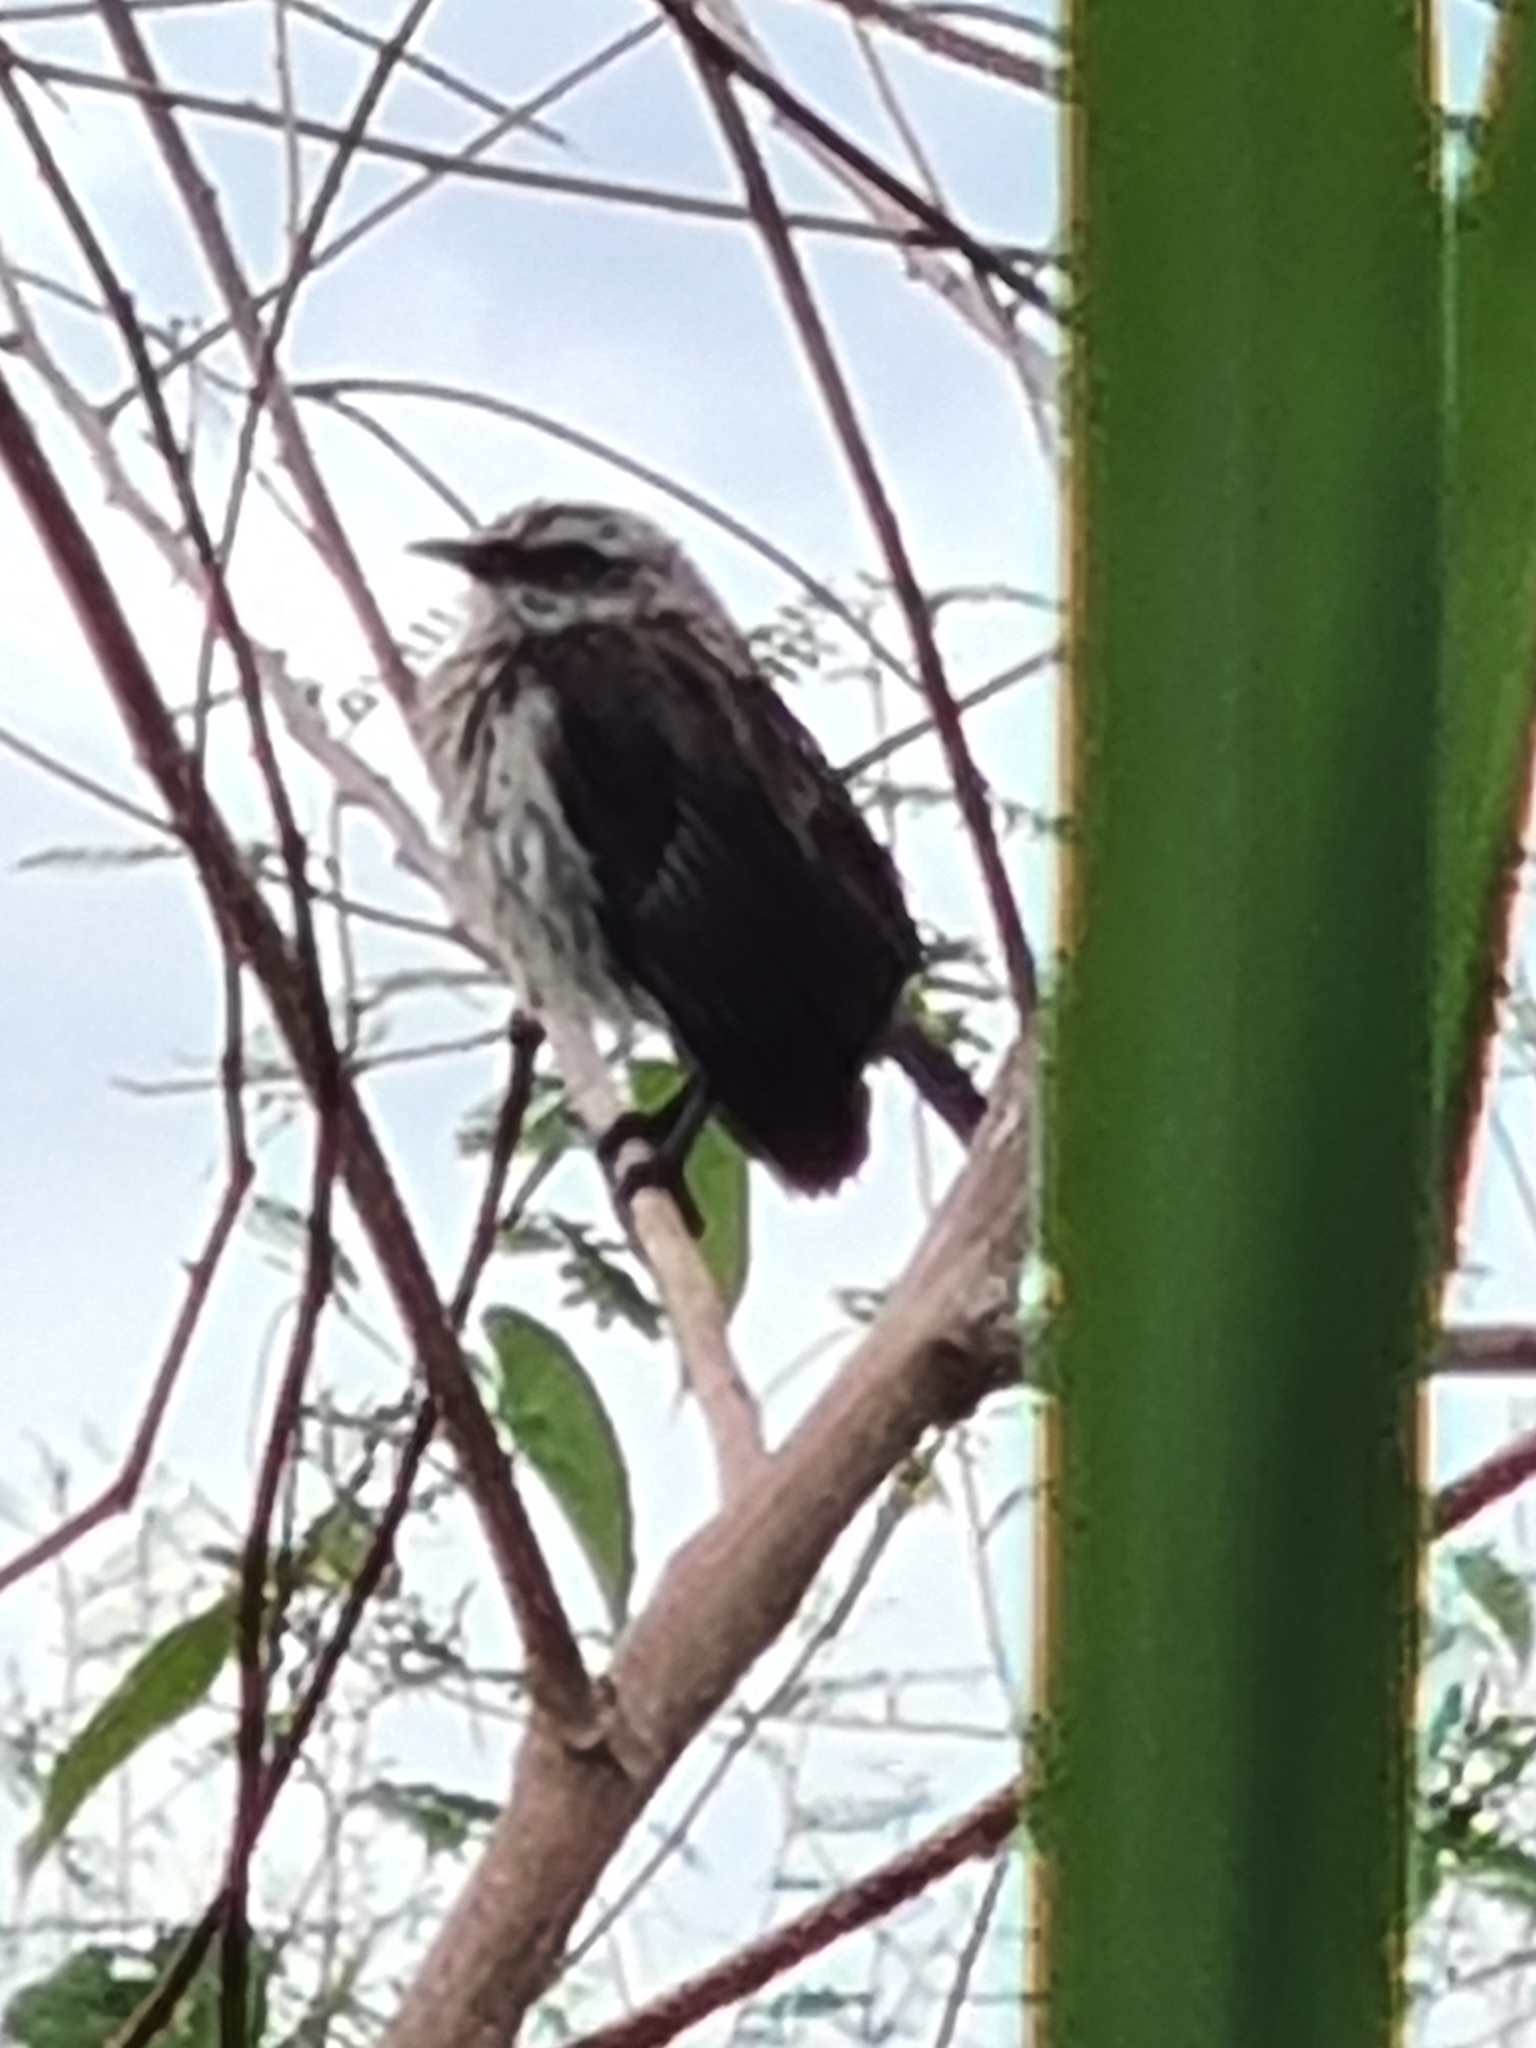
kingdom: Animalia
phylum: Chordata
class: Aves
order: Passeriformes
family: Mimidae
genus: Mimus
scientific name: Mimus gilvus
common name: Tropical mockingbird
